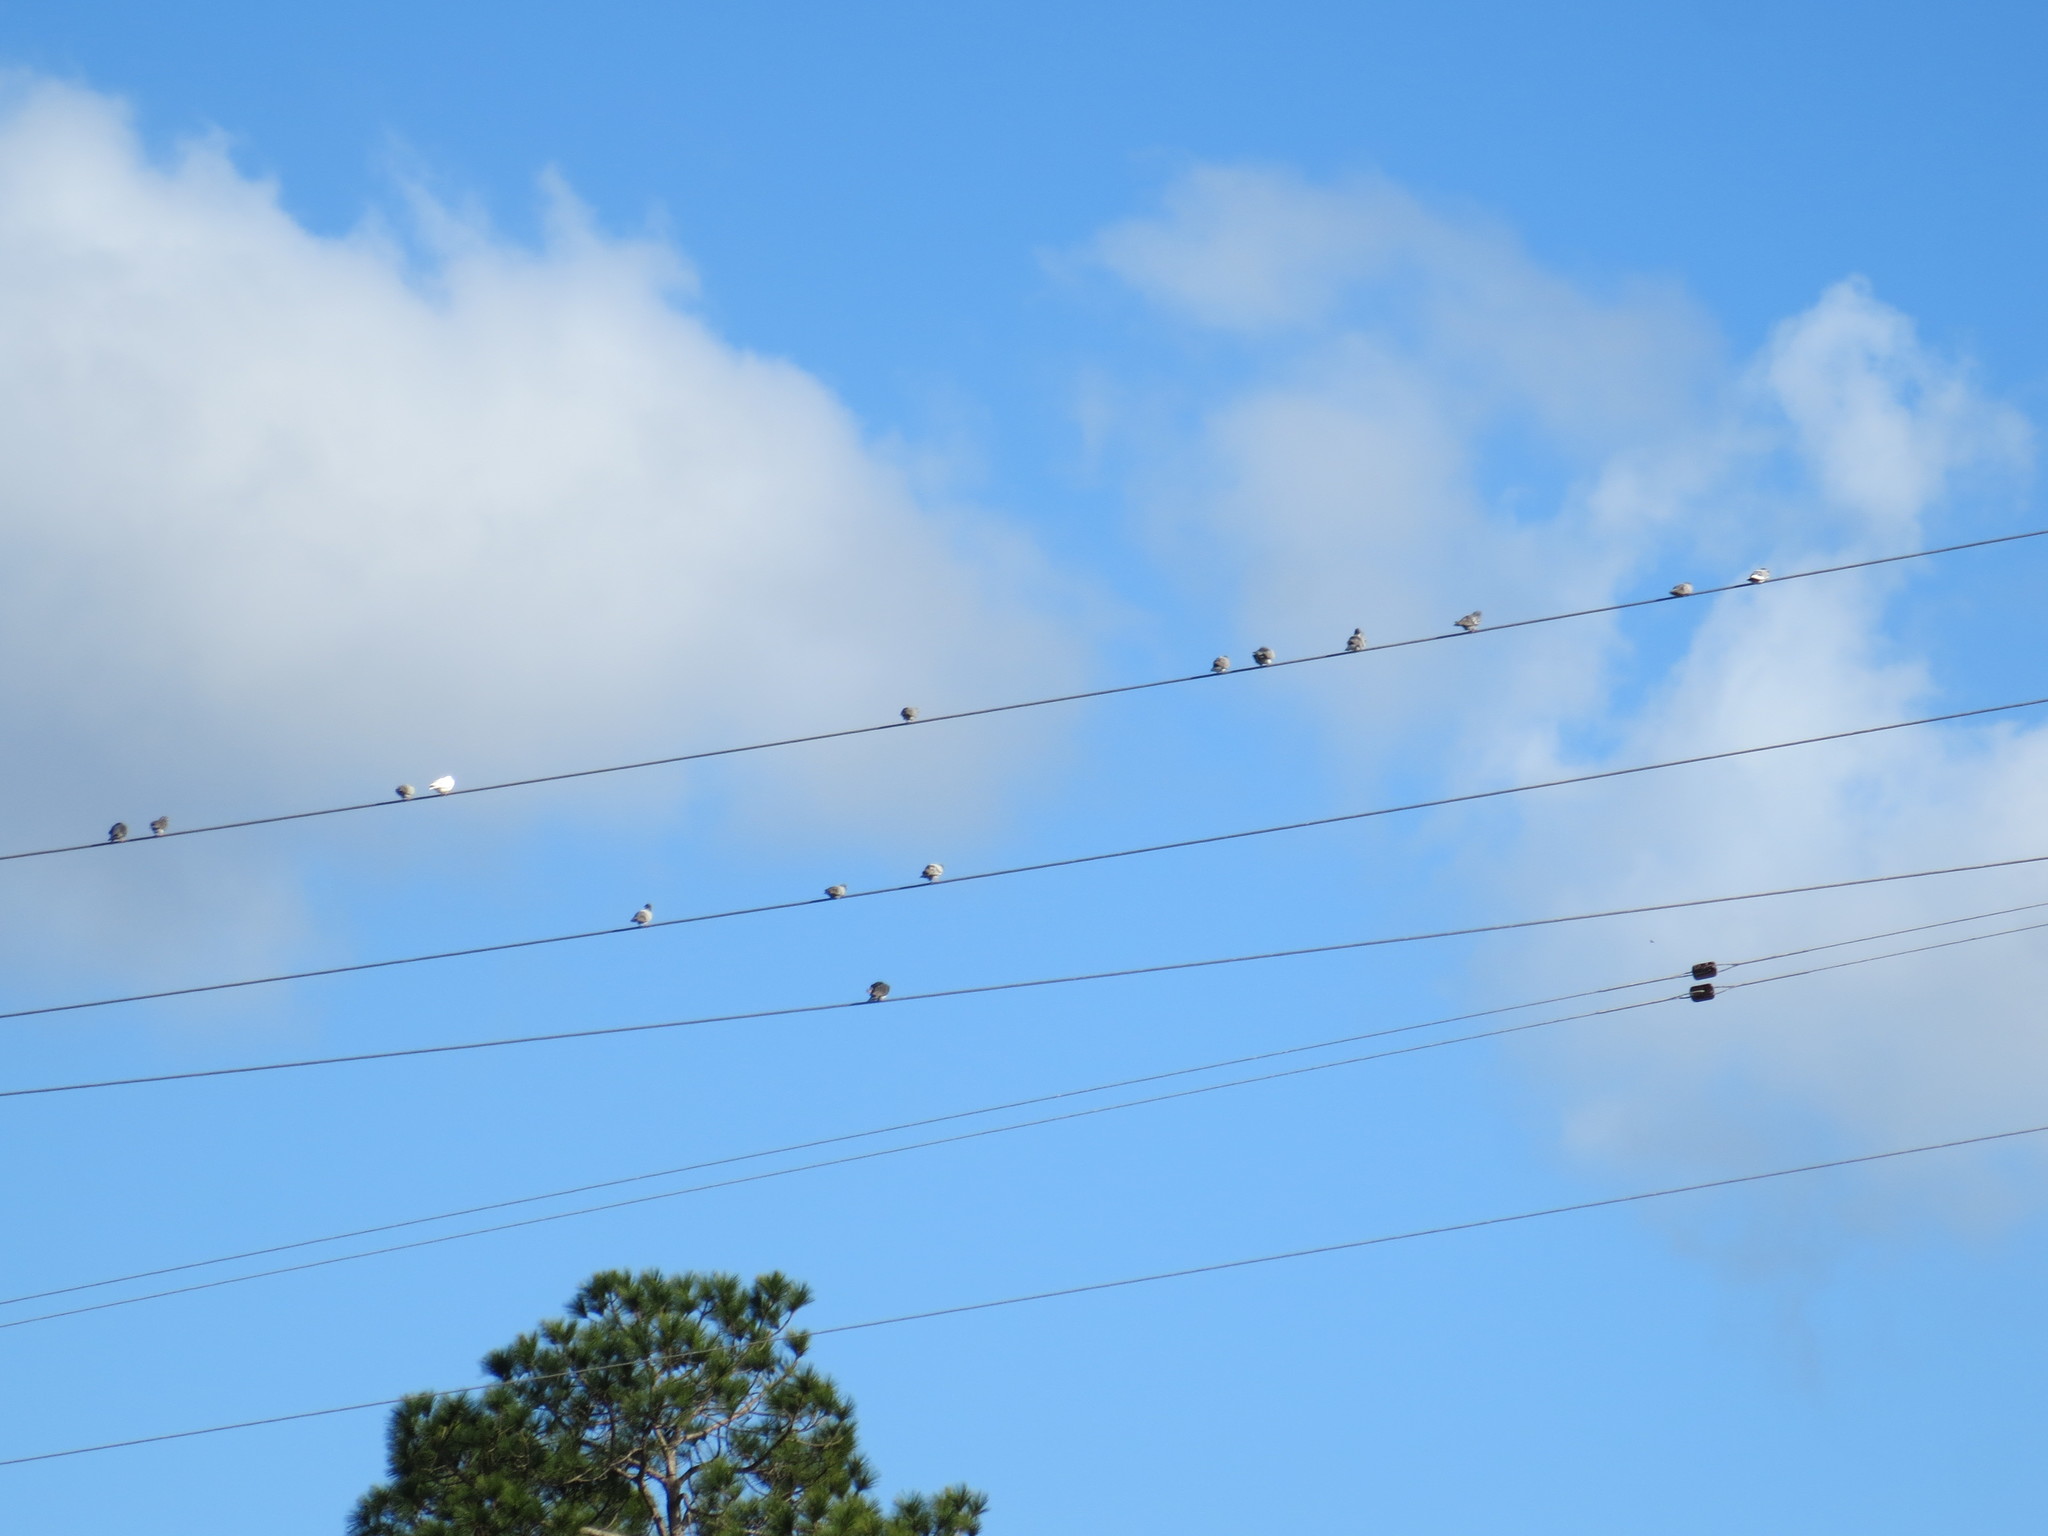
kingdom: Animalia
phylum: Chordata
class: Aves
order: Columbiformes
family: Columbidae
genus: Columba
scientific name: Columba livia
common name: Rock pigeon
